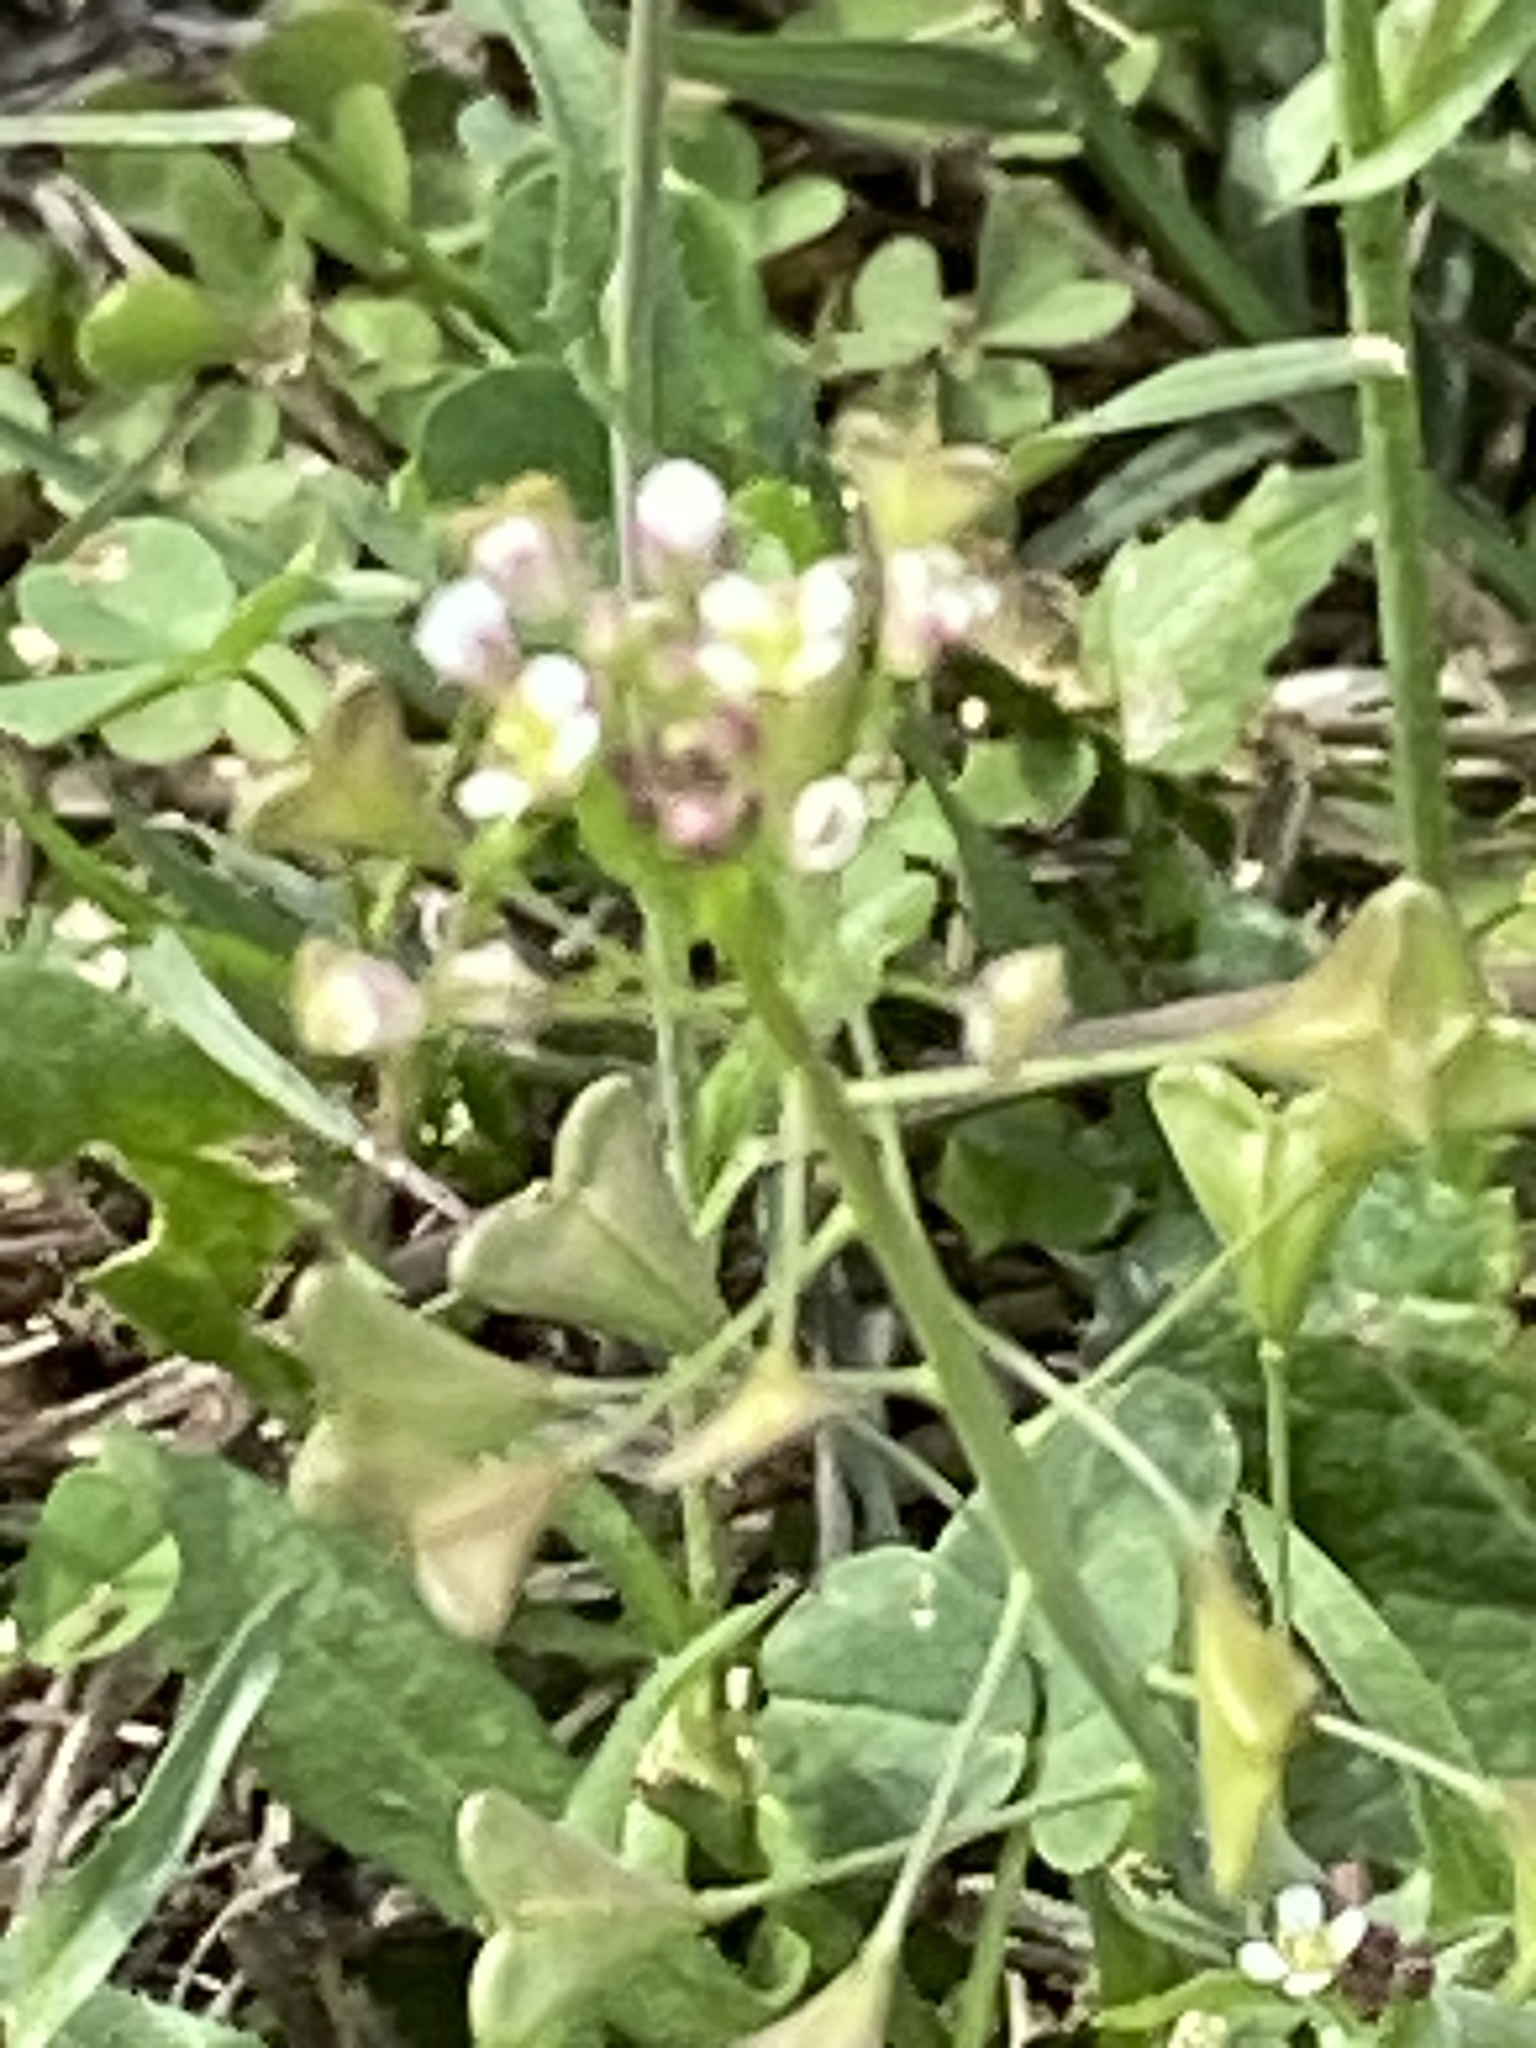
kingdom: Plantae
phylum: Tracheophyta
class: Magnoliopsida
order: Brassicales
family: Brassicaceae
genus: Capsella
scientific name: Capsella bursa-pastoris
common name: Shepherd's purse
